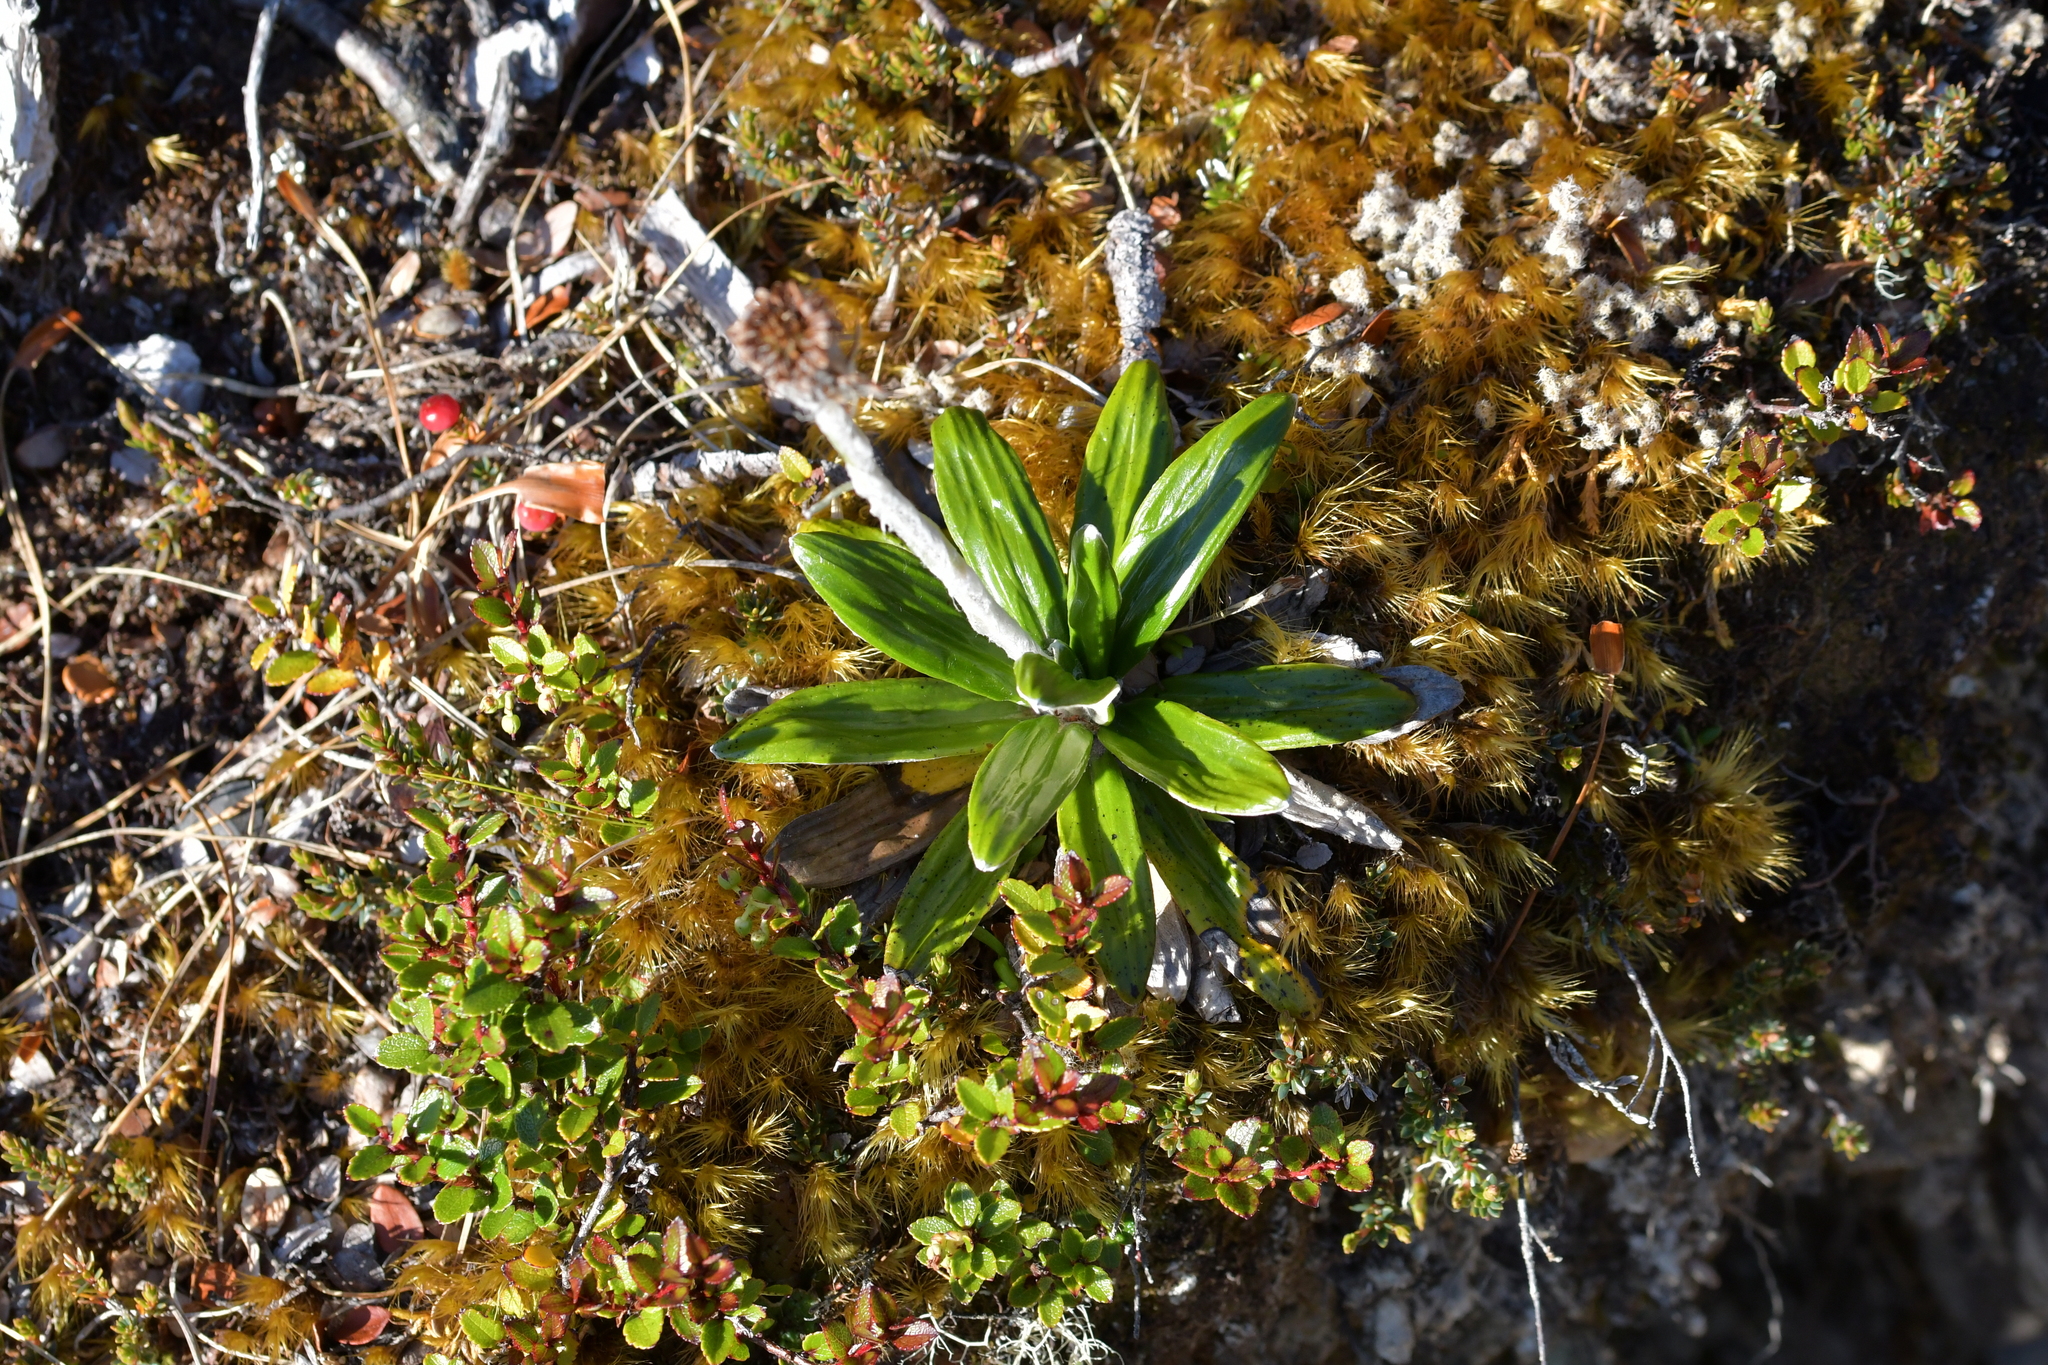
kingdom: Plantae
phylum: Tracheophyta
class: Magnoliopsida
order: Asterales
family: Asteraceae
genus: Celmisia
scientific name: Celmisia spectabilis
